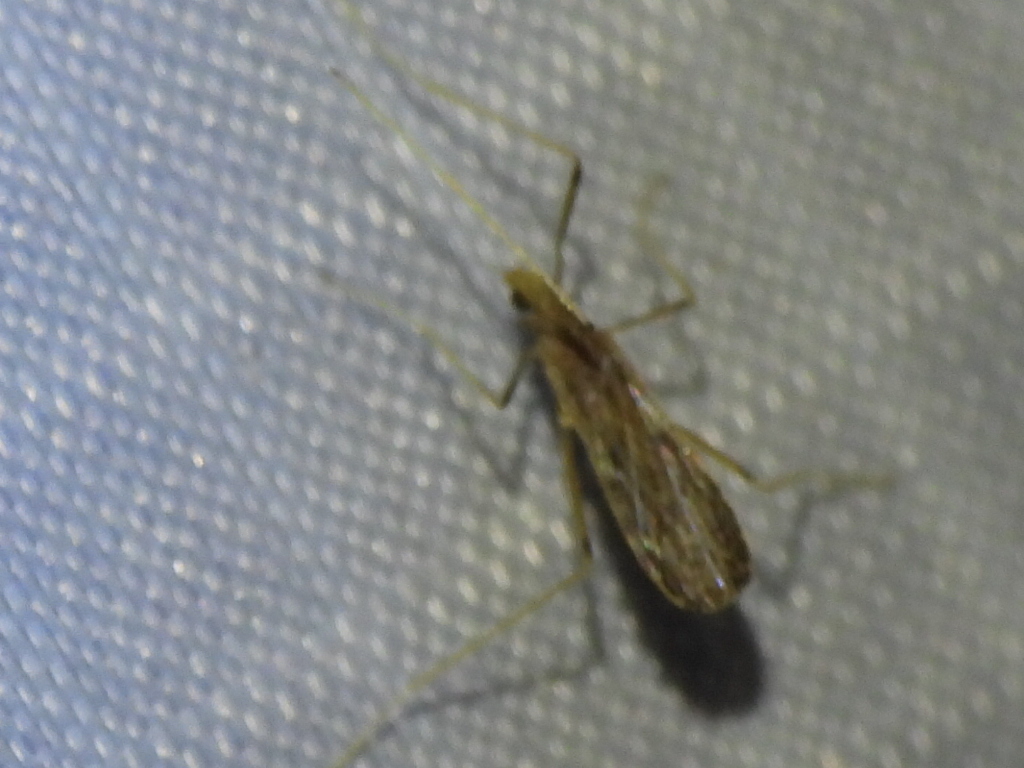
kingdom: Animalia
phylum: Arthropoda
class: Insecta
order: Diptera
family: Limoniidae
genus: Erioptera
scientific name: Erioptera tantilla
